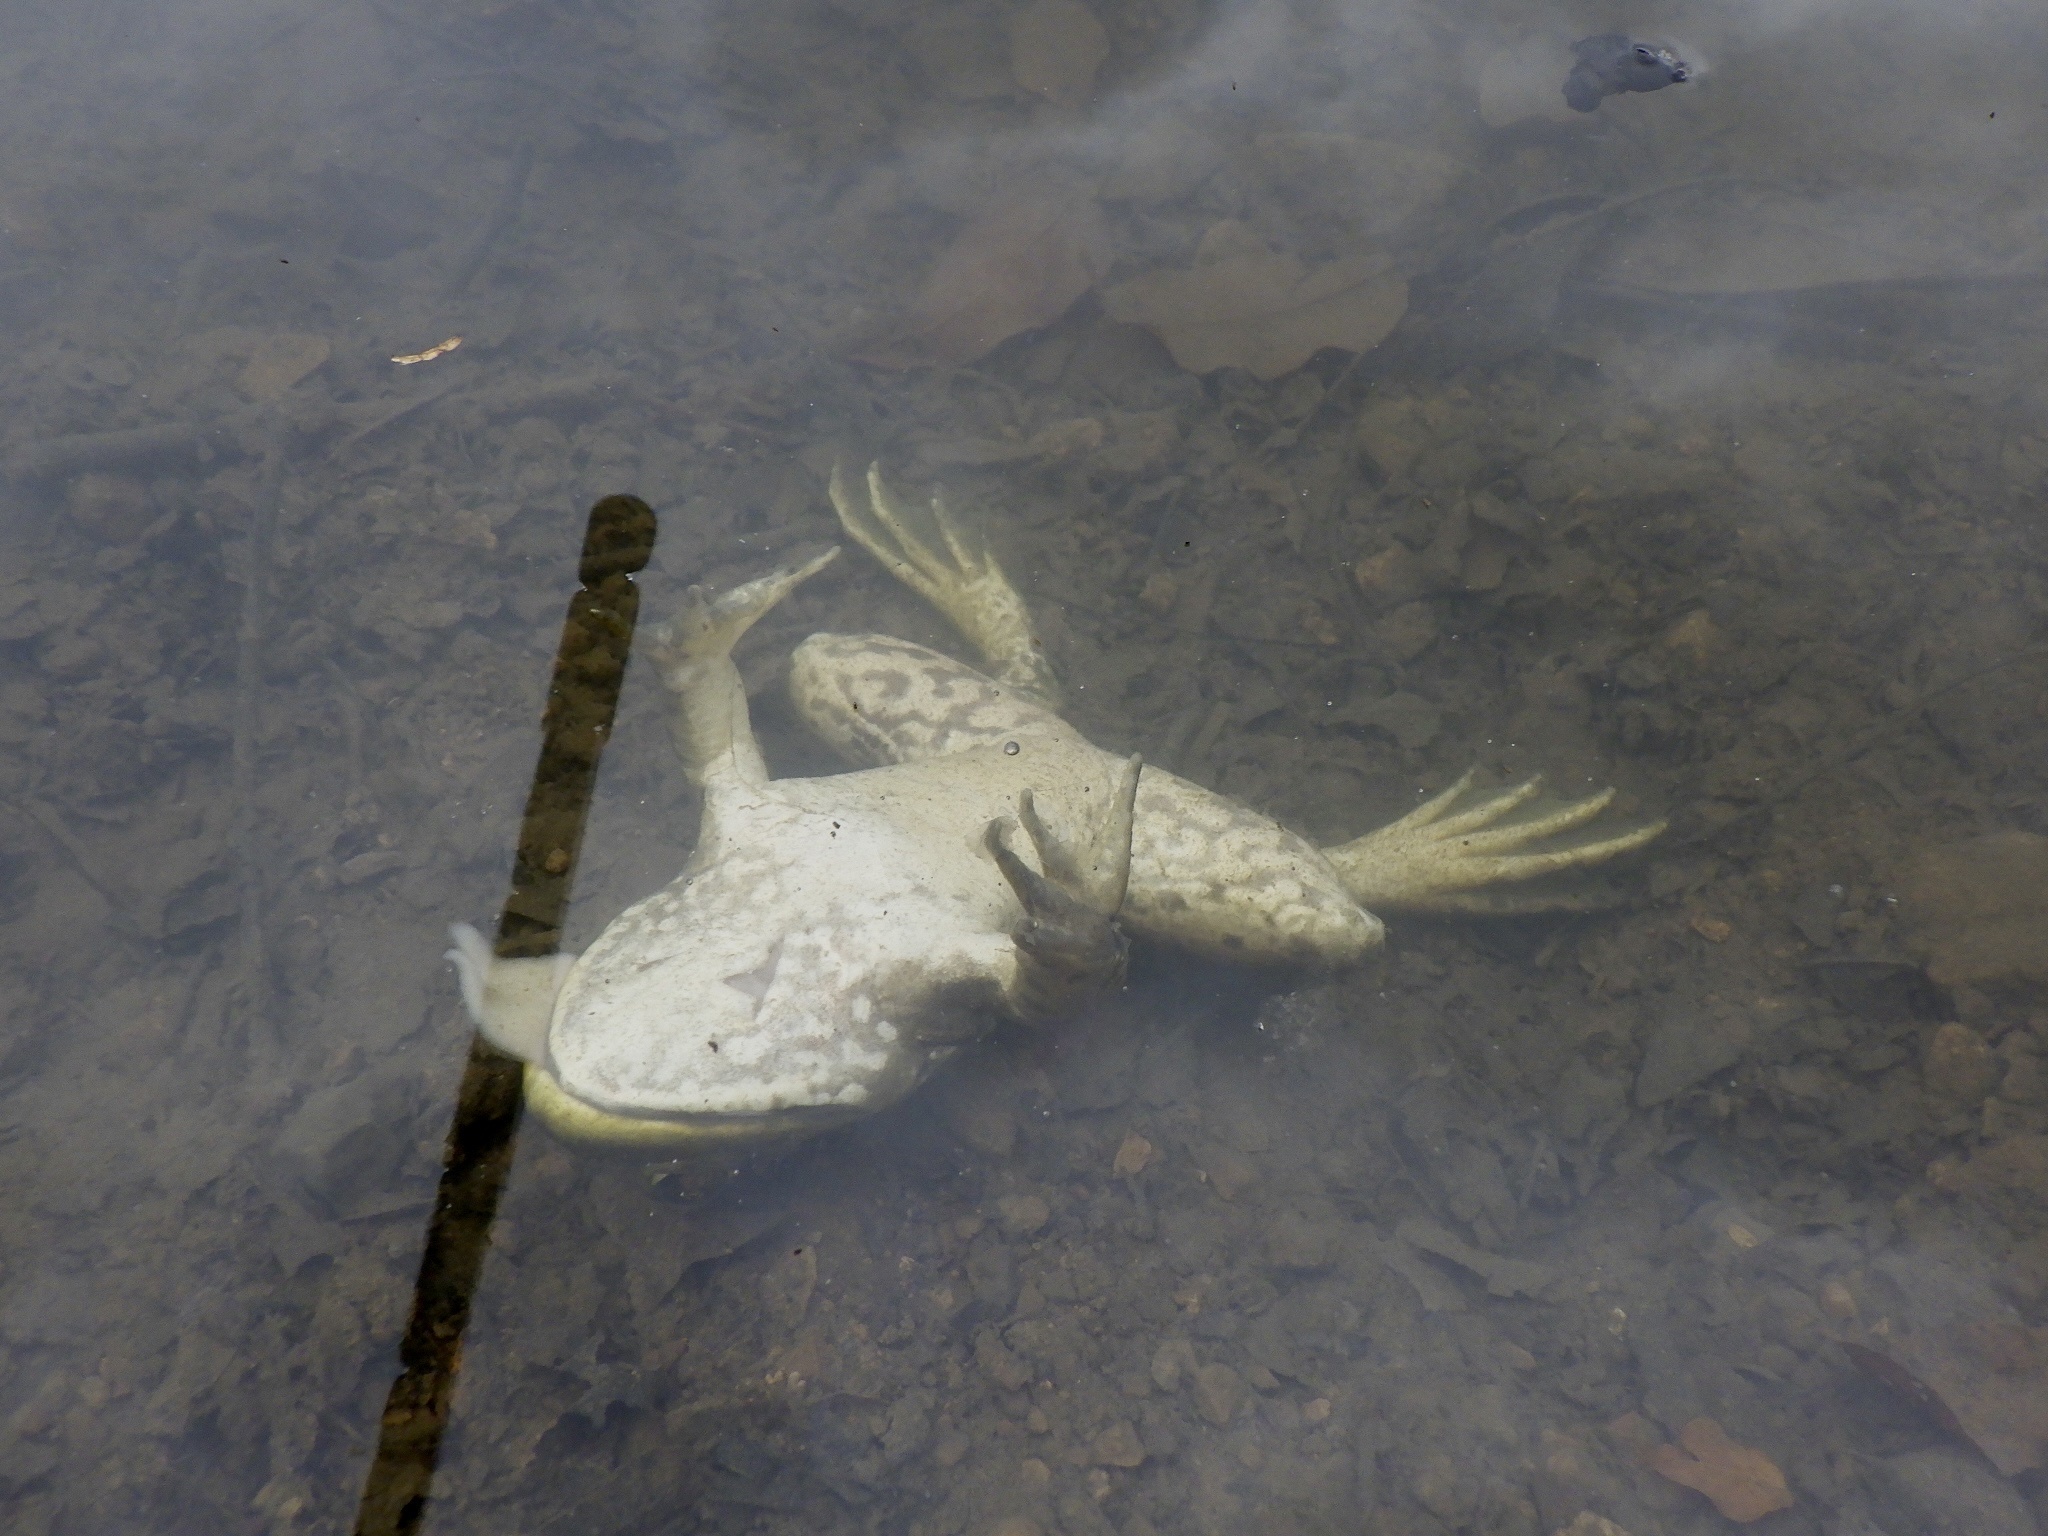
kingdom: Animalia
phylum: Chordata
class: Amphibia
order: Anura
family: Ranidae
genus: Lithobates
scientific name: Lithobates catesbeianus
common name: American bullfrog
